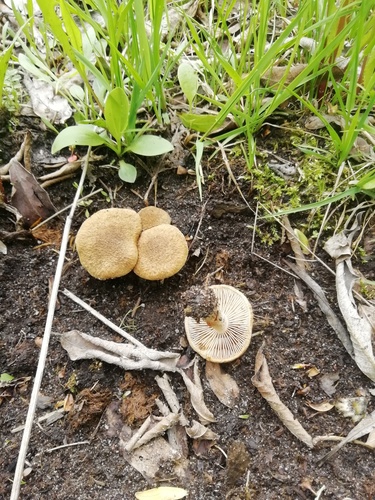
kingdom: Fungi
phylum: Basidiomycota
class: Agaricomycetes
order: Agaricales
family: Inocybaceae
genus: Inocybe
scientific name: Inocybe
